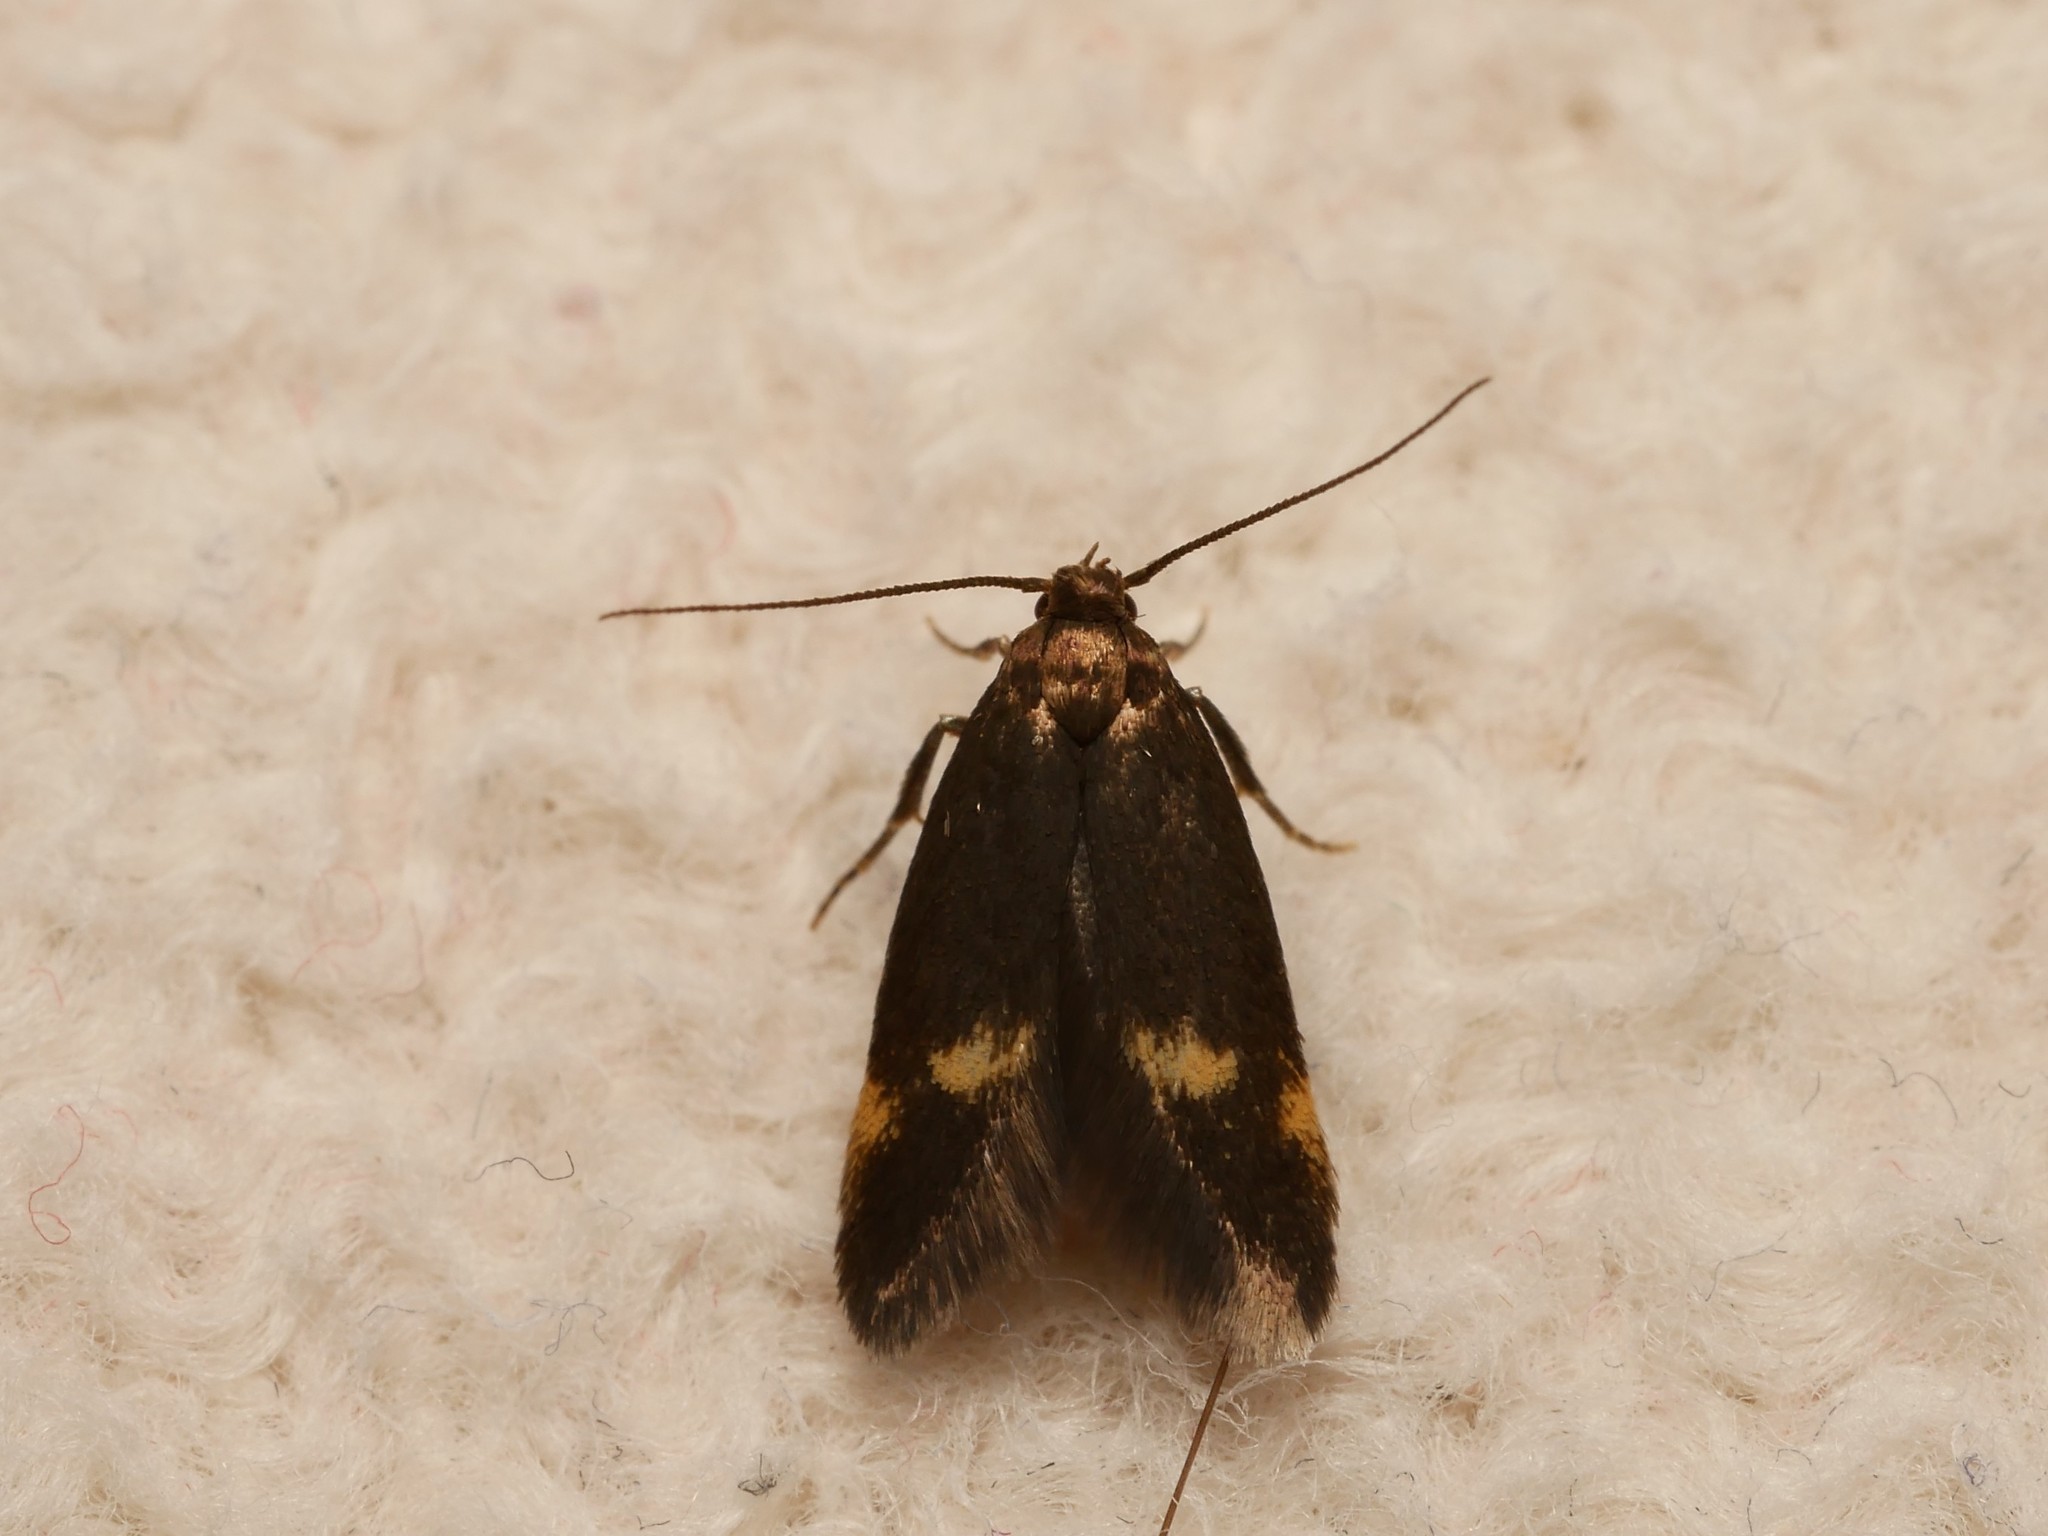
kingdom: Animalia
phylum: Arthropoda
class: Insecta
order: Lepidoptera
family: Oecophoridae
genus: Borkhausenia
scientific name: Borkhausenia minutella
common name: Thatch tubic
